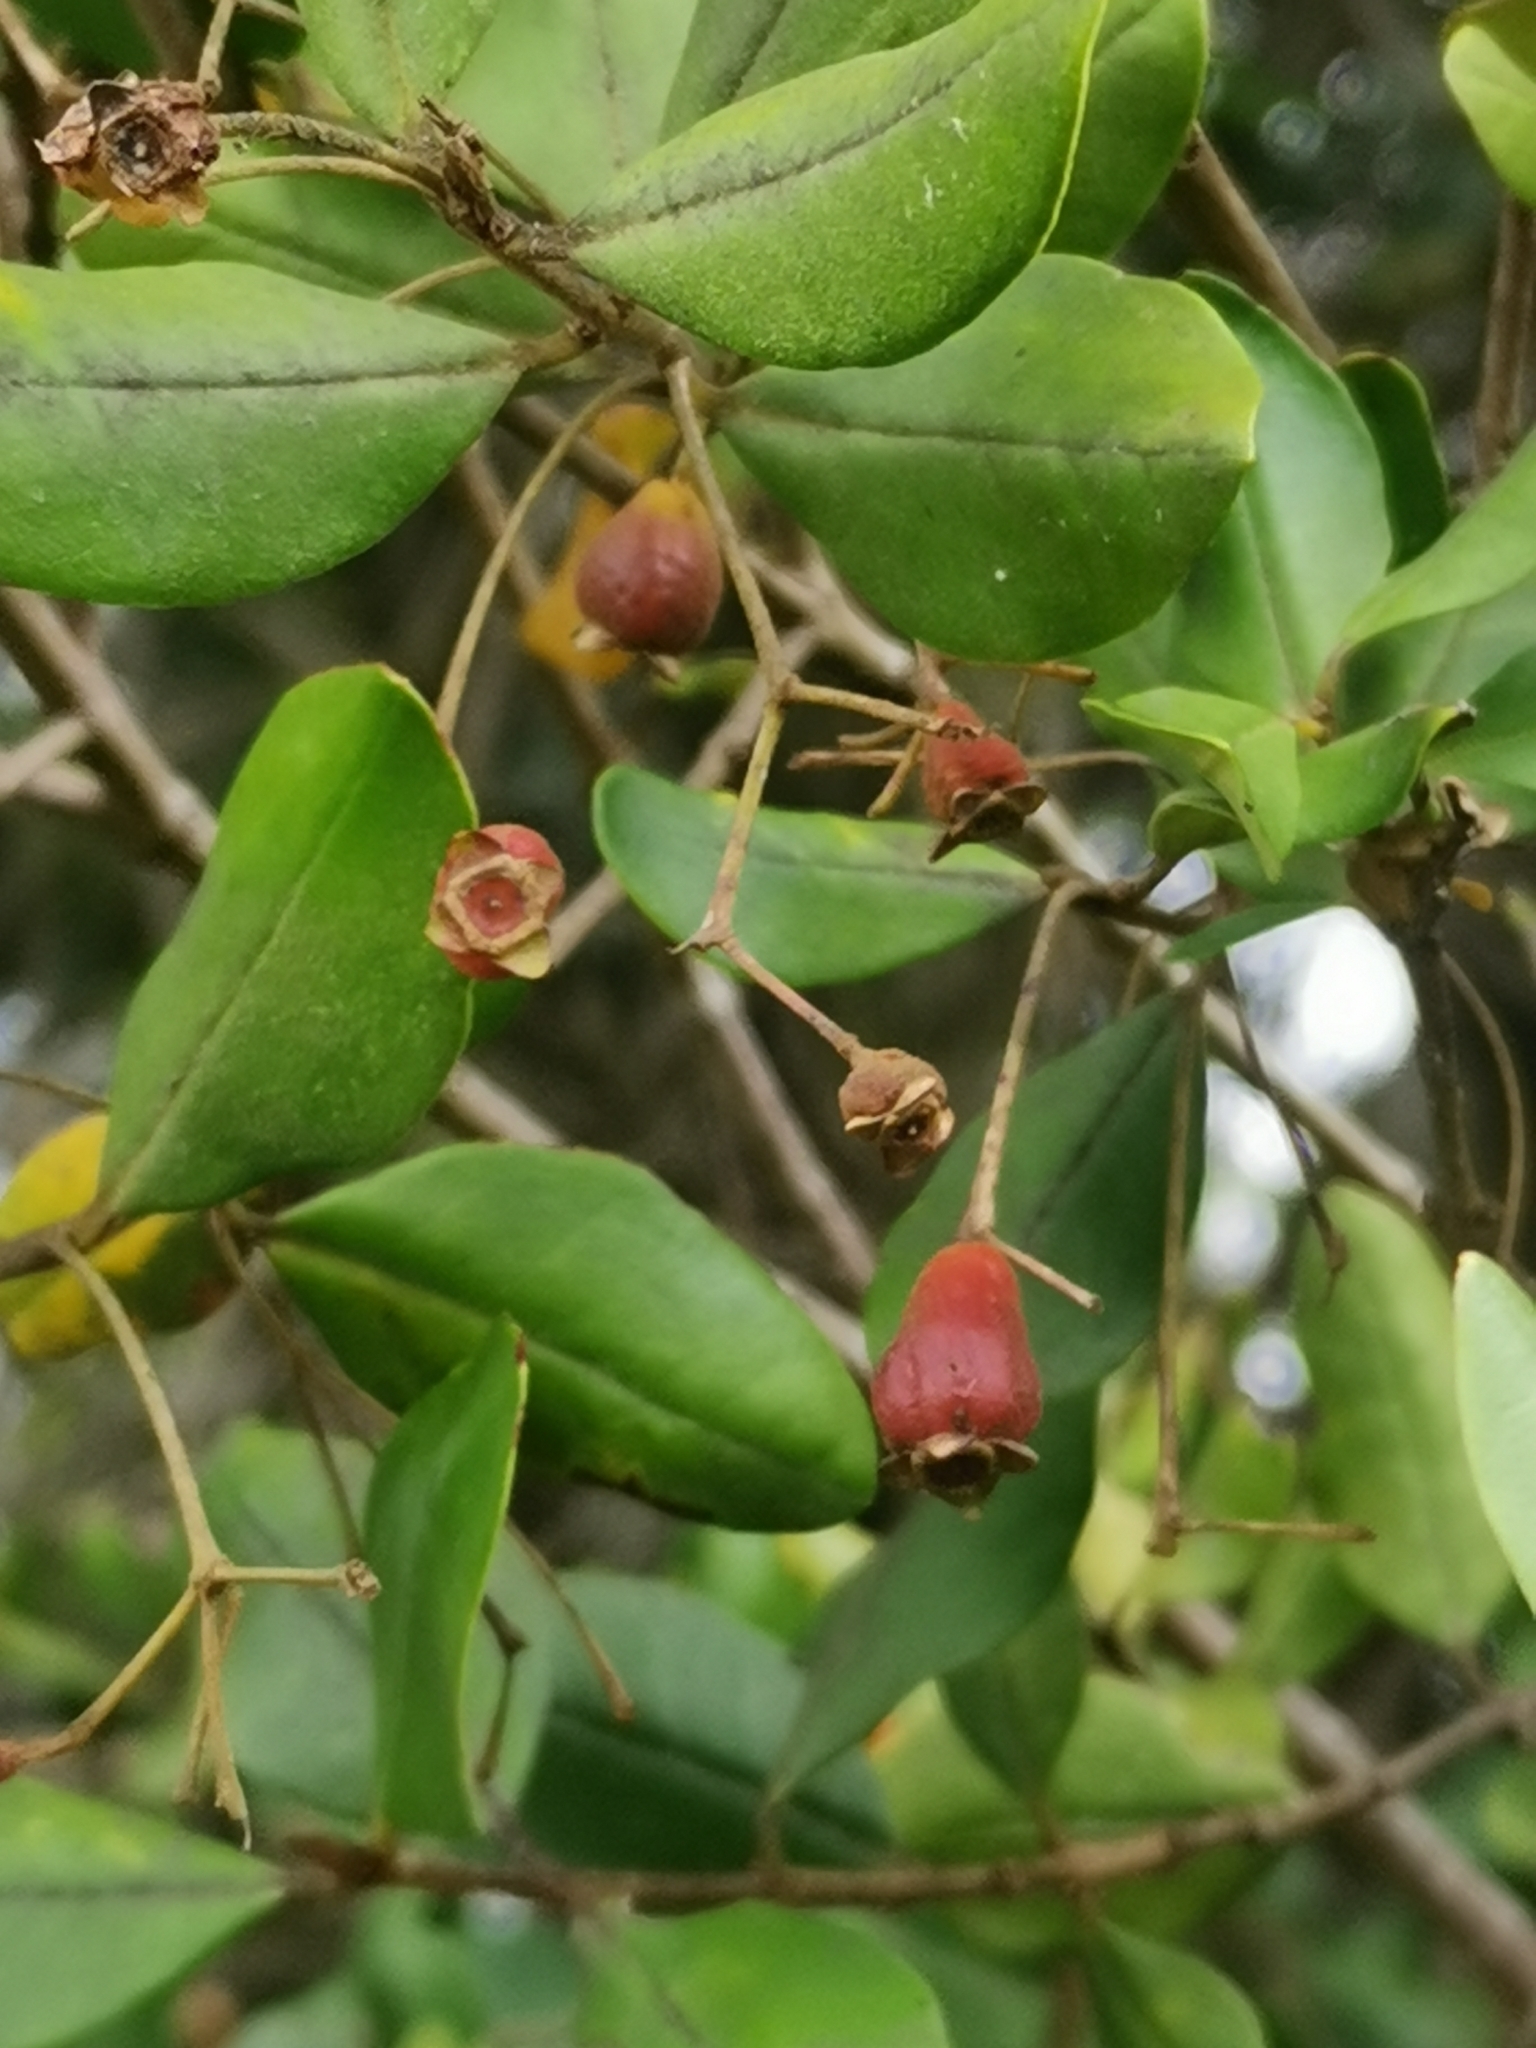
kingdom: Plantae
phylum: Tracheophyta
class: Magnoliopsida
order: Myrtales
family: Myrtaceae
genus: Myrceugenia
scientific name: Myrceugenia exsucca
